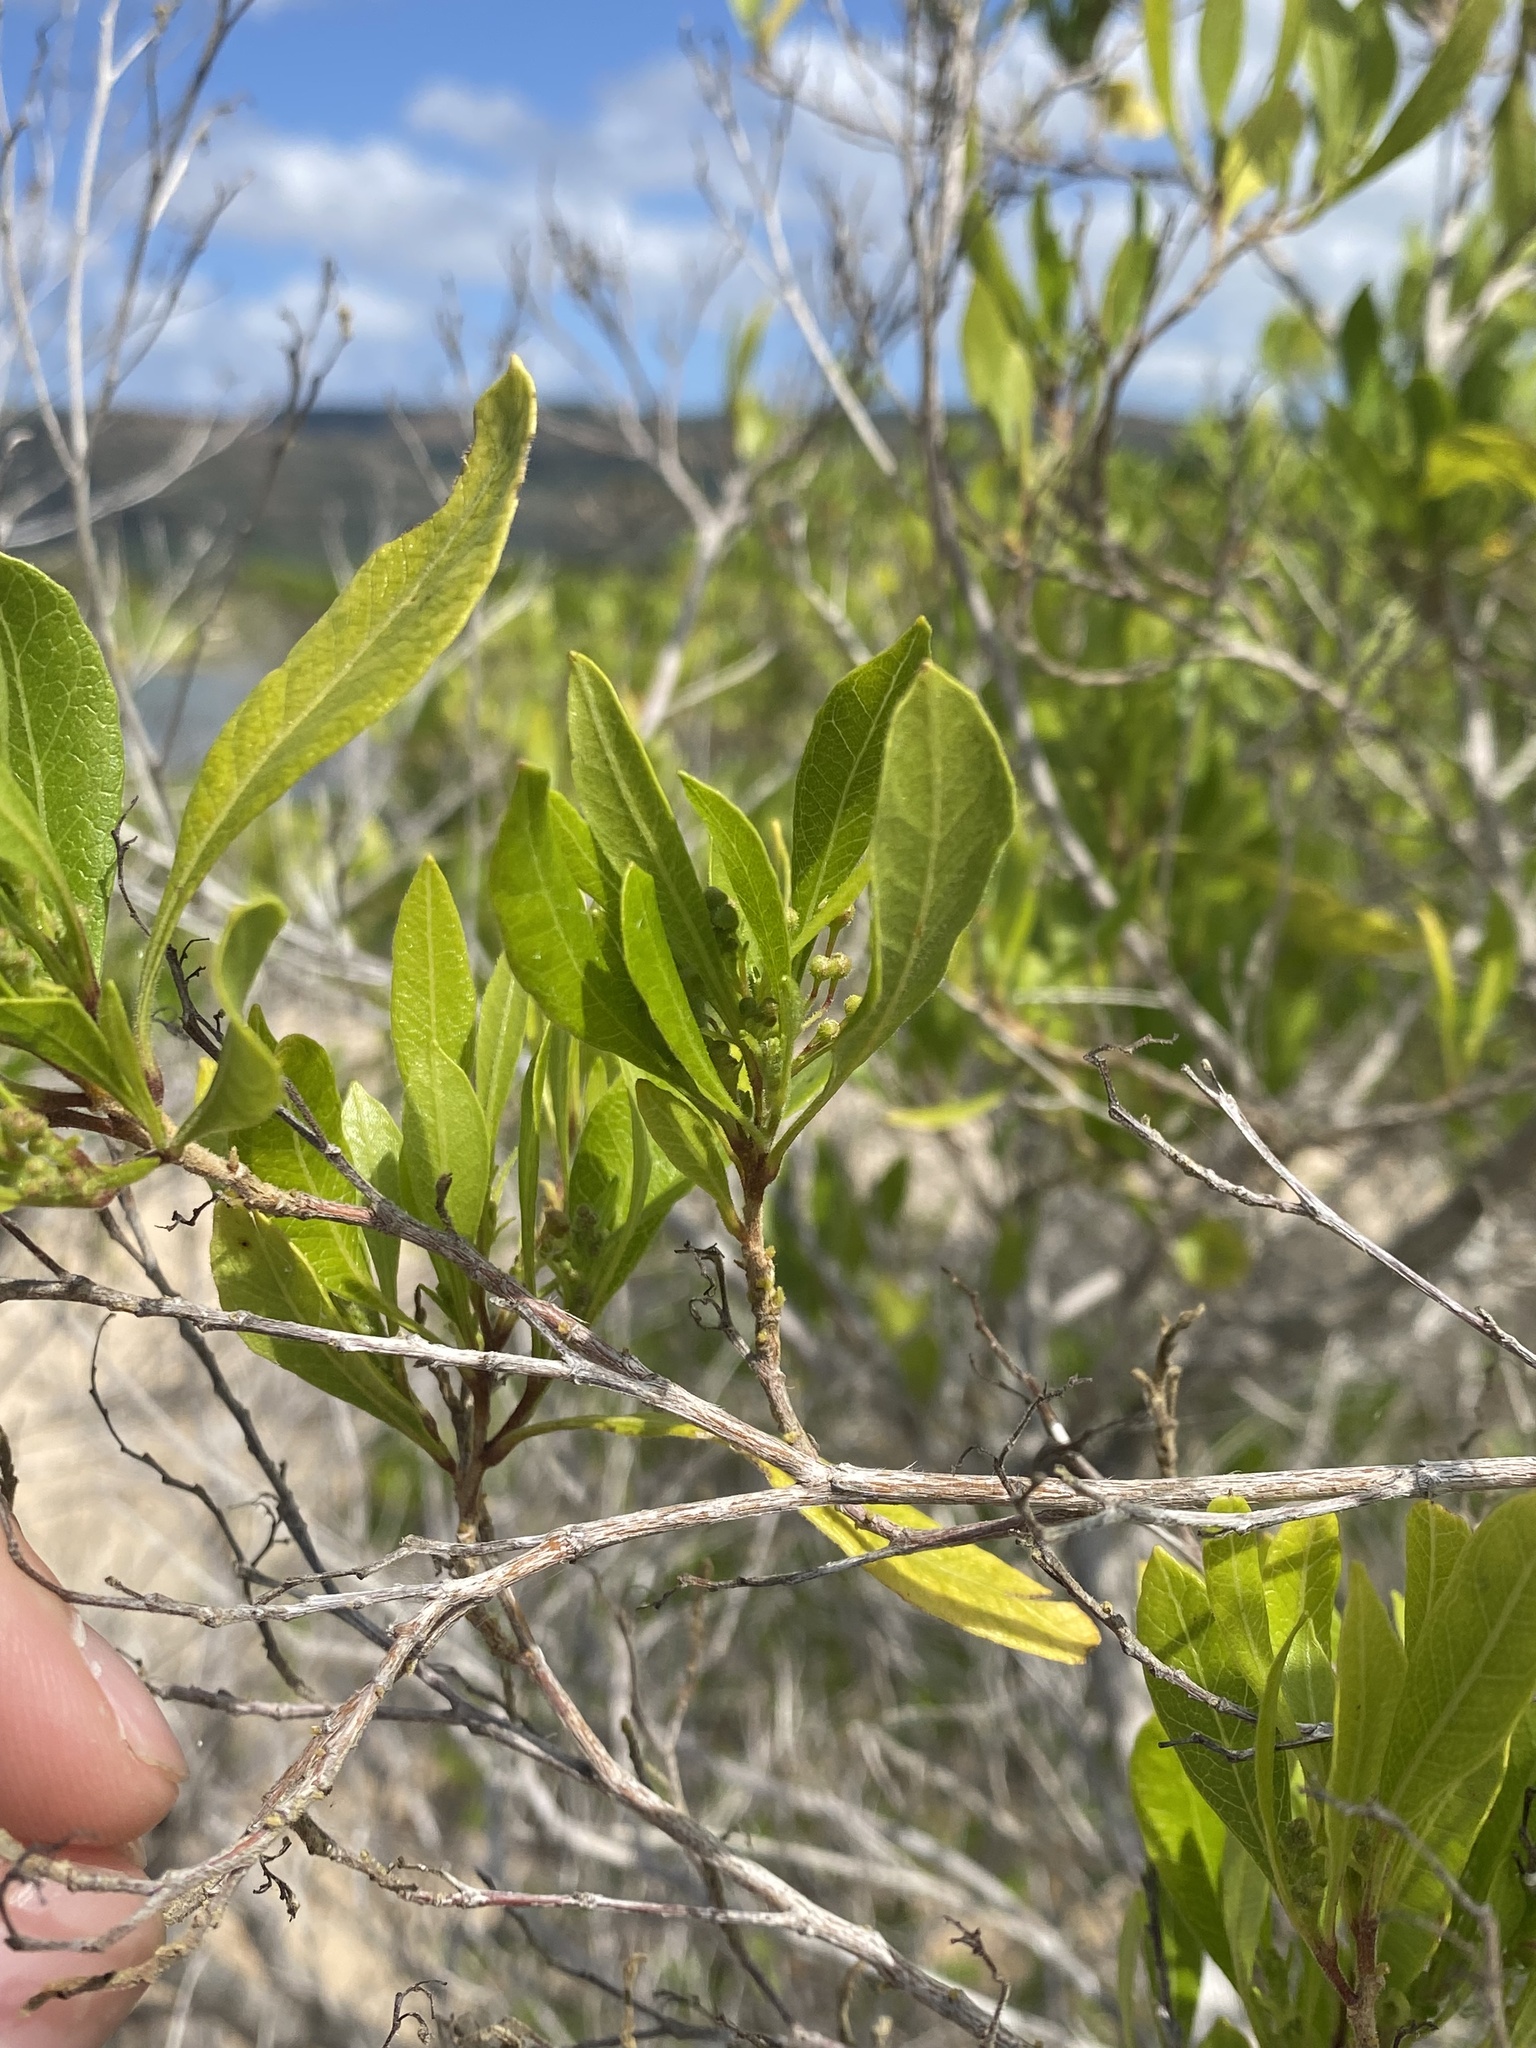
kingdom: Plantae
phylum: Tracheophyta
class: Magnoliopsida
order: Sapindales
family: Sapindaceae
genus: Dodonaea
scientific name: Dodonaea viscosa
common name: Hopbush
